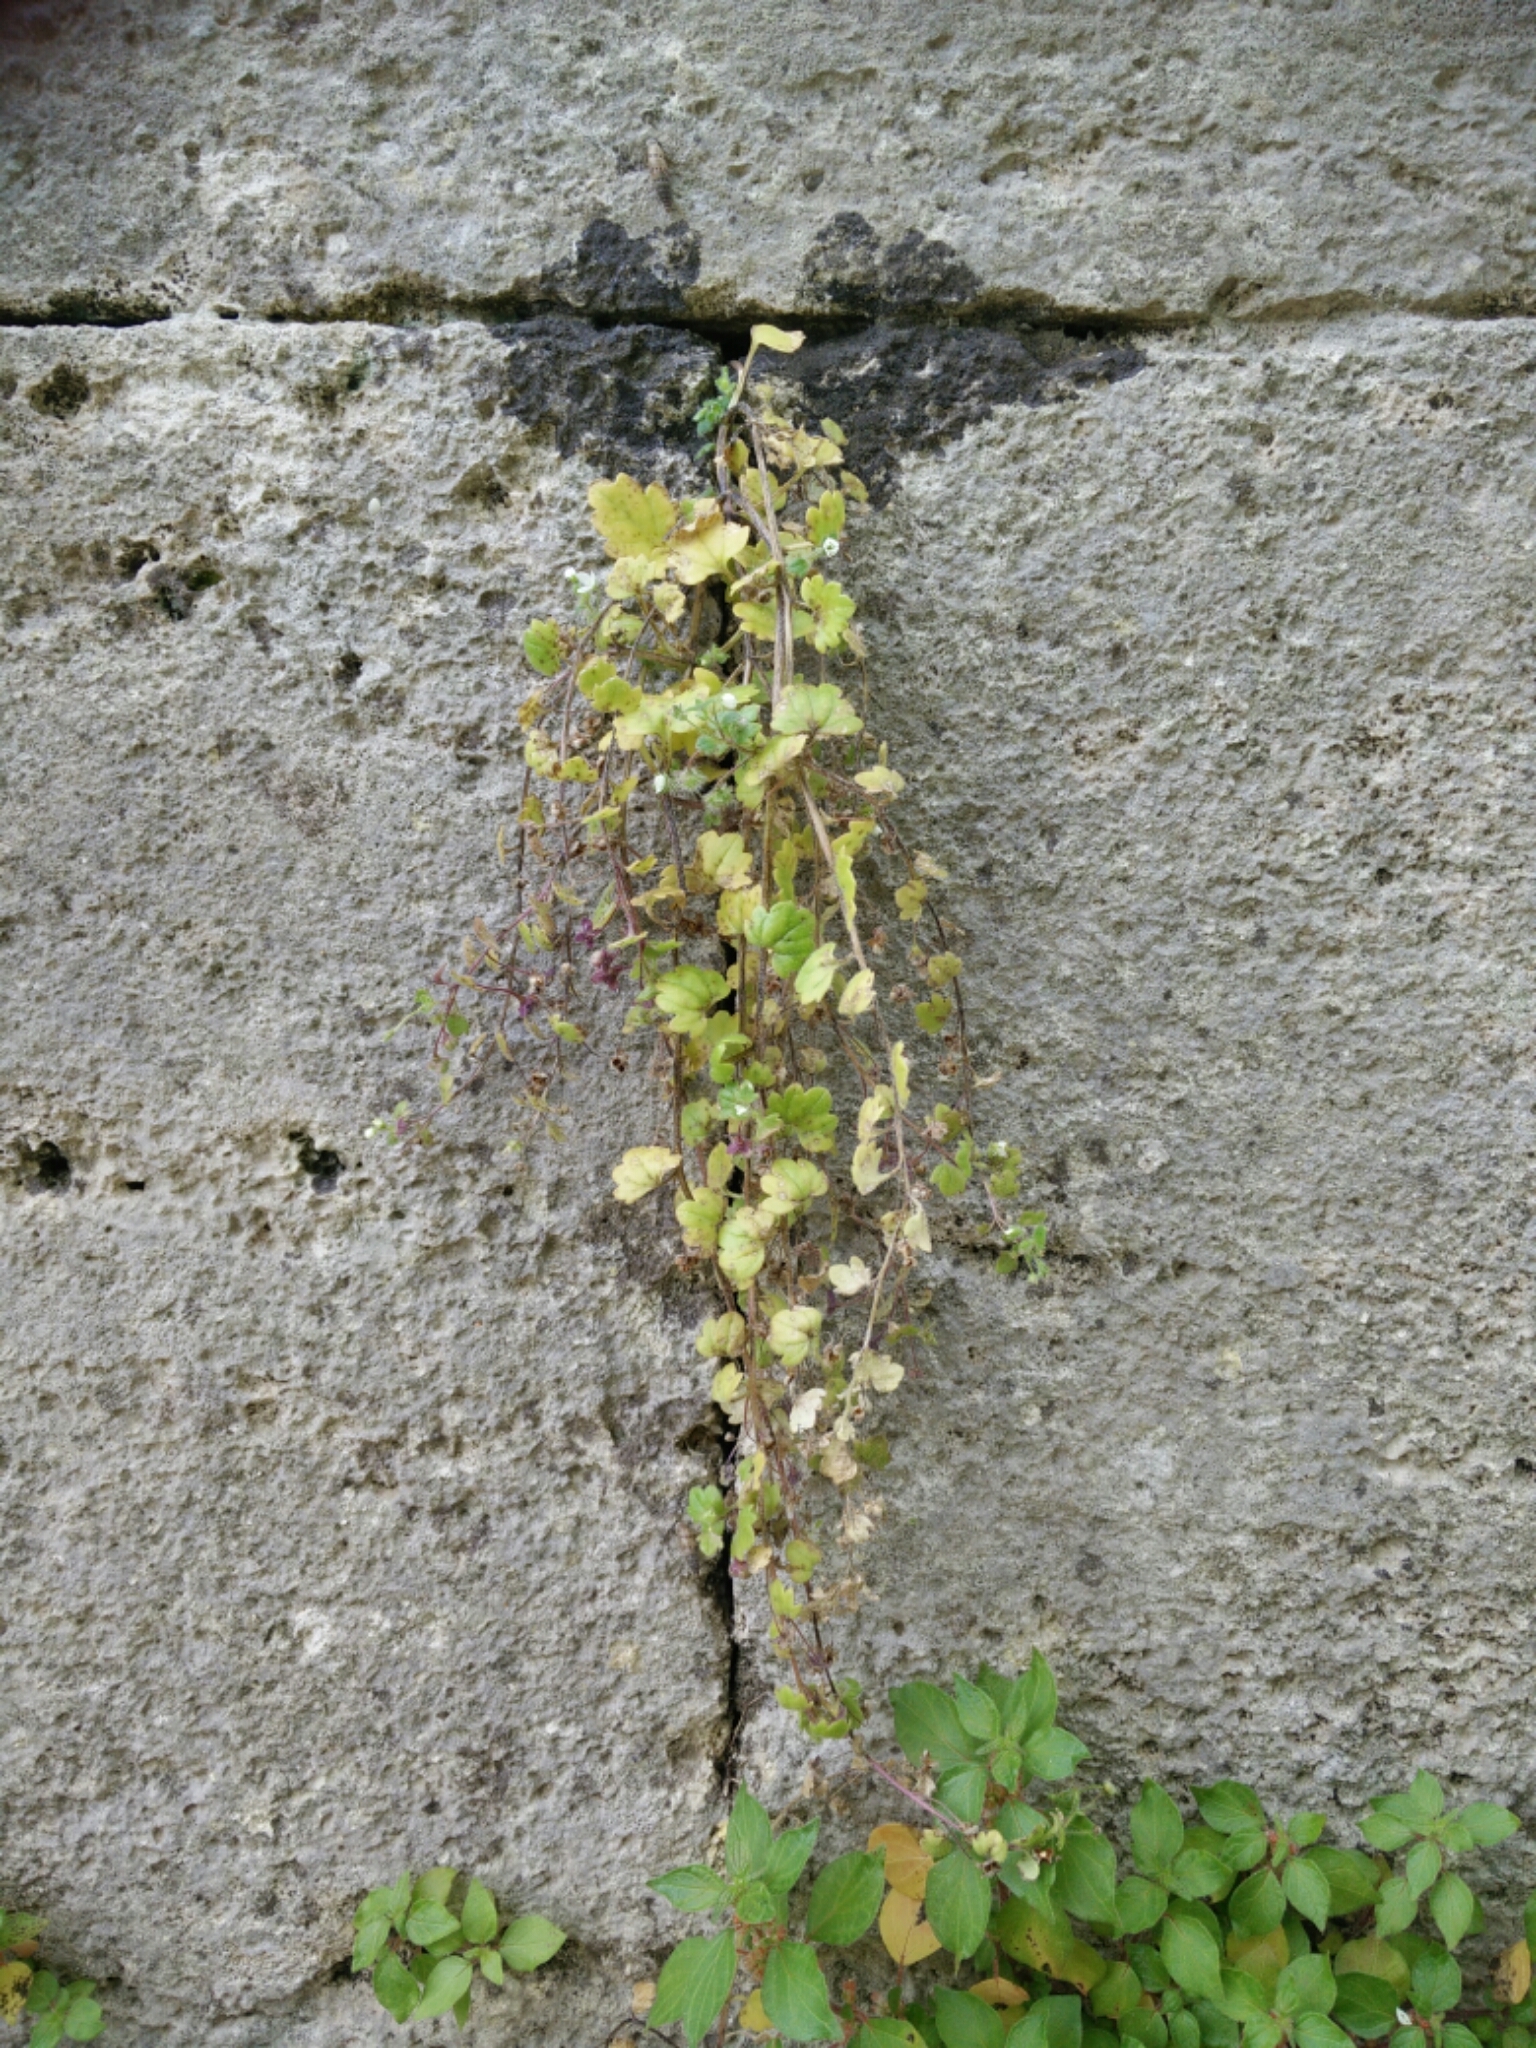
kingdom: Plantae
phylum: Tracheophyta
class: Magnoliopsida
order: Lamiales
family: Plantaginaceae
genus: Veronica
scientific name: Veronica cymbalaria
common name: Pale speedwell
